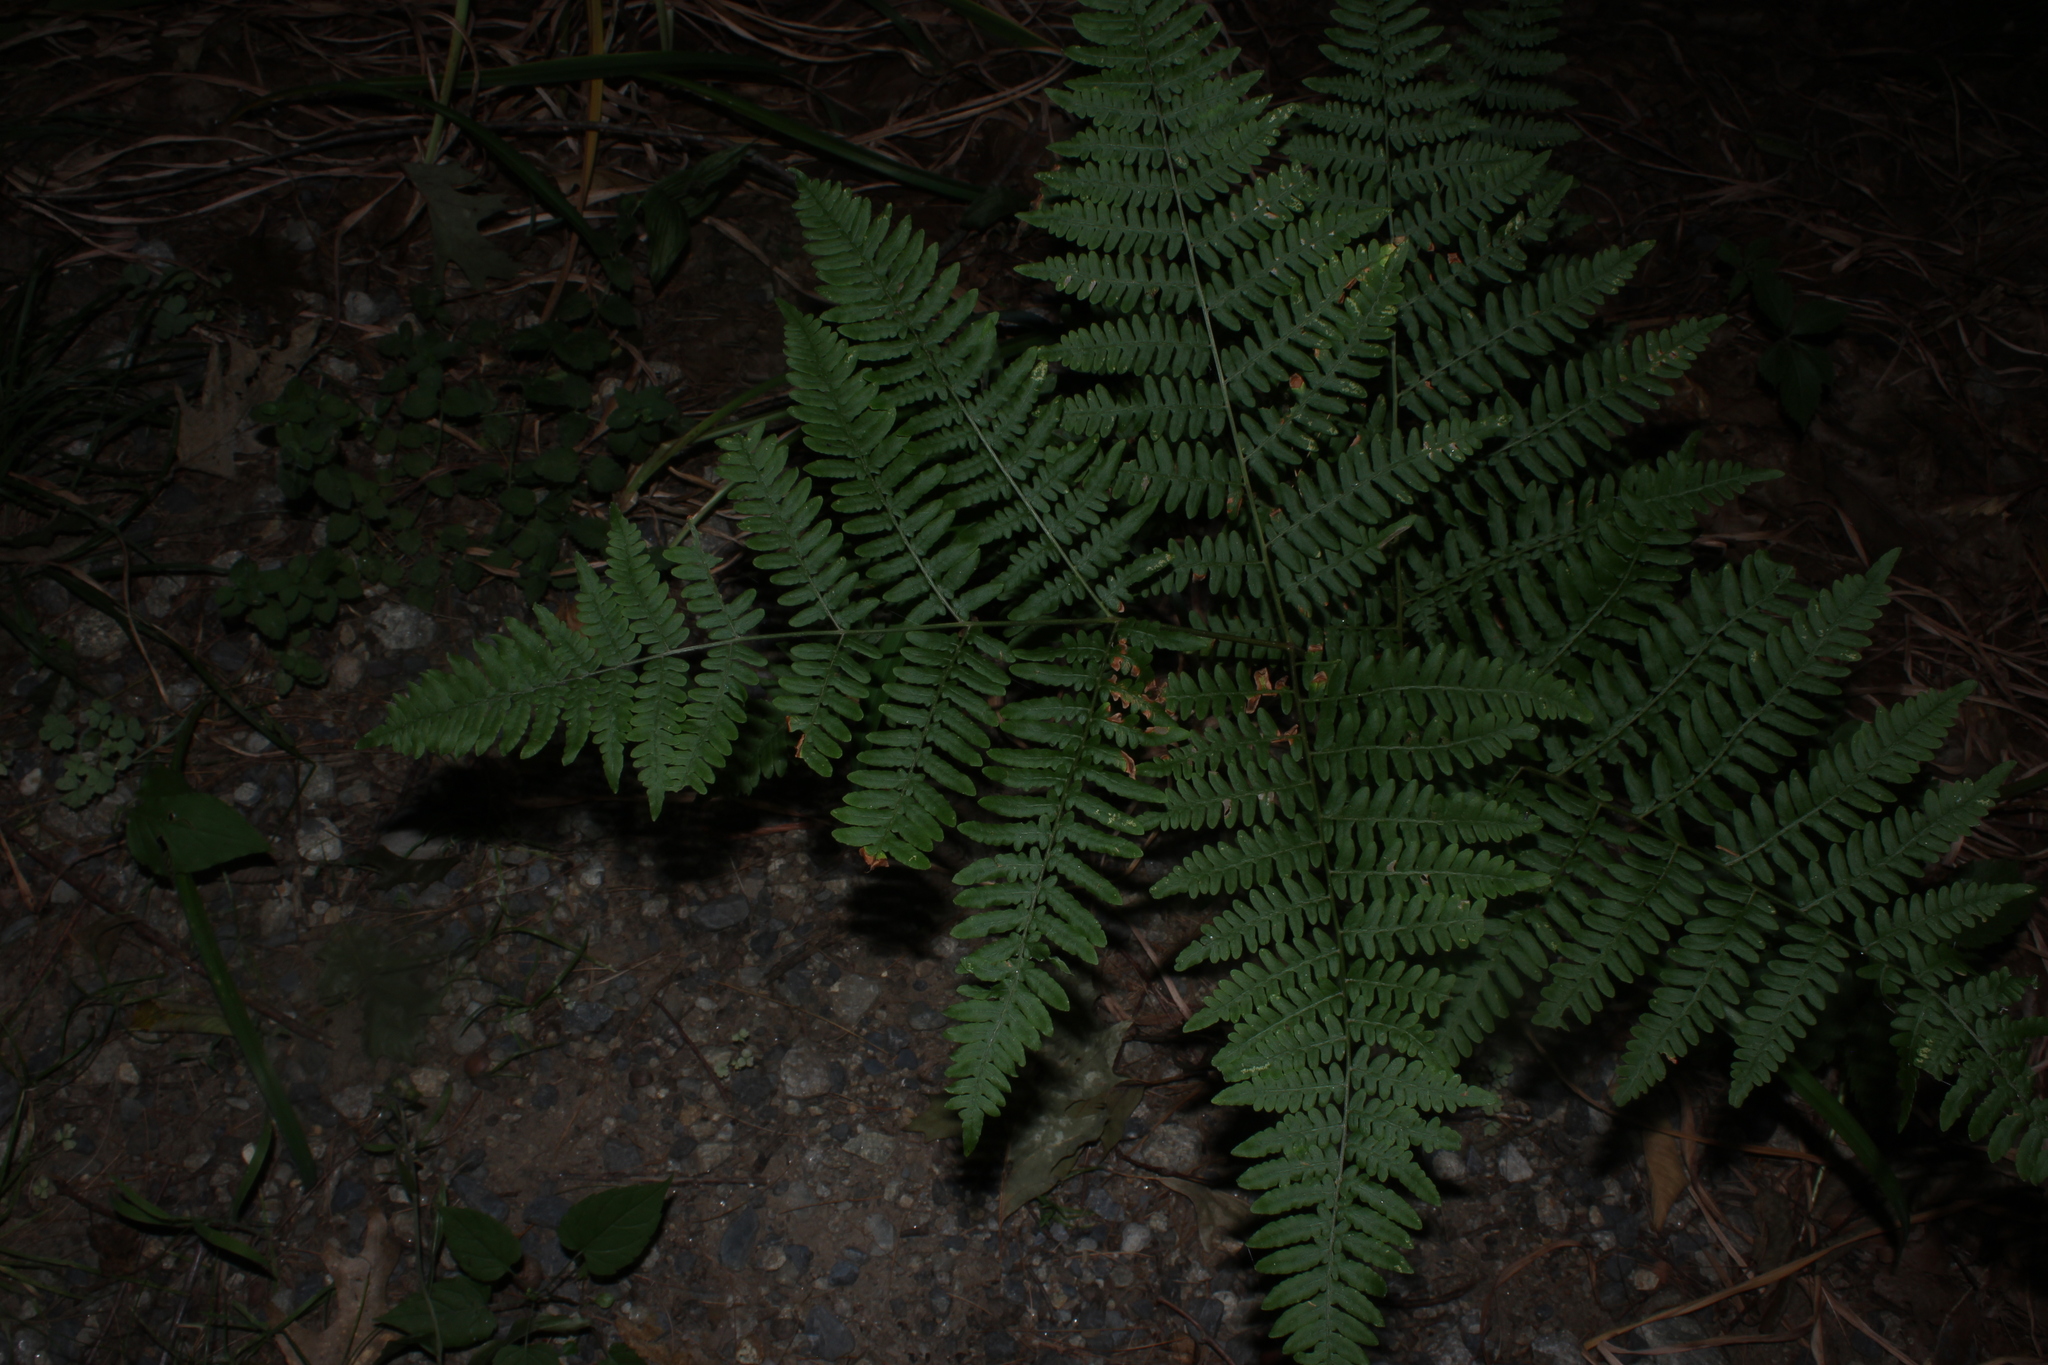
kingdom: Plantae
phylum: Tracheophyta
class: Polypodiopsida
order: Polypodiales
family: Dennstaedtiaceae
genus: Pteridium
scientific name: Pteridium aquilinum
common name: Bracken
